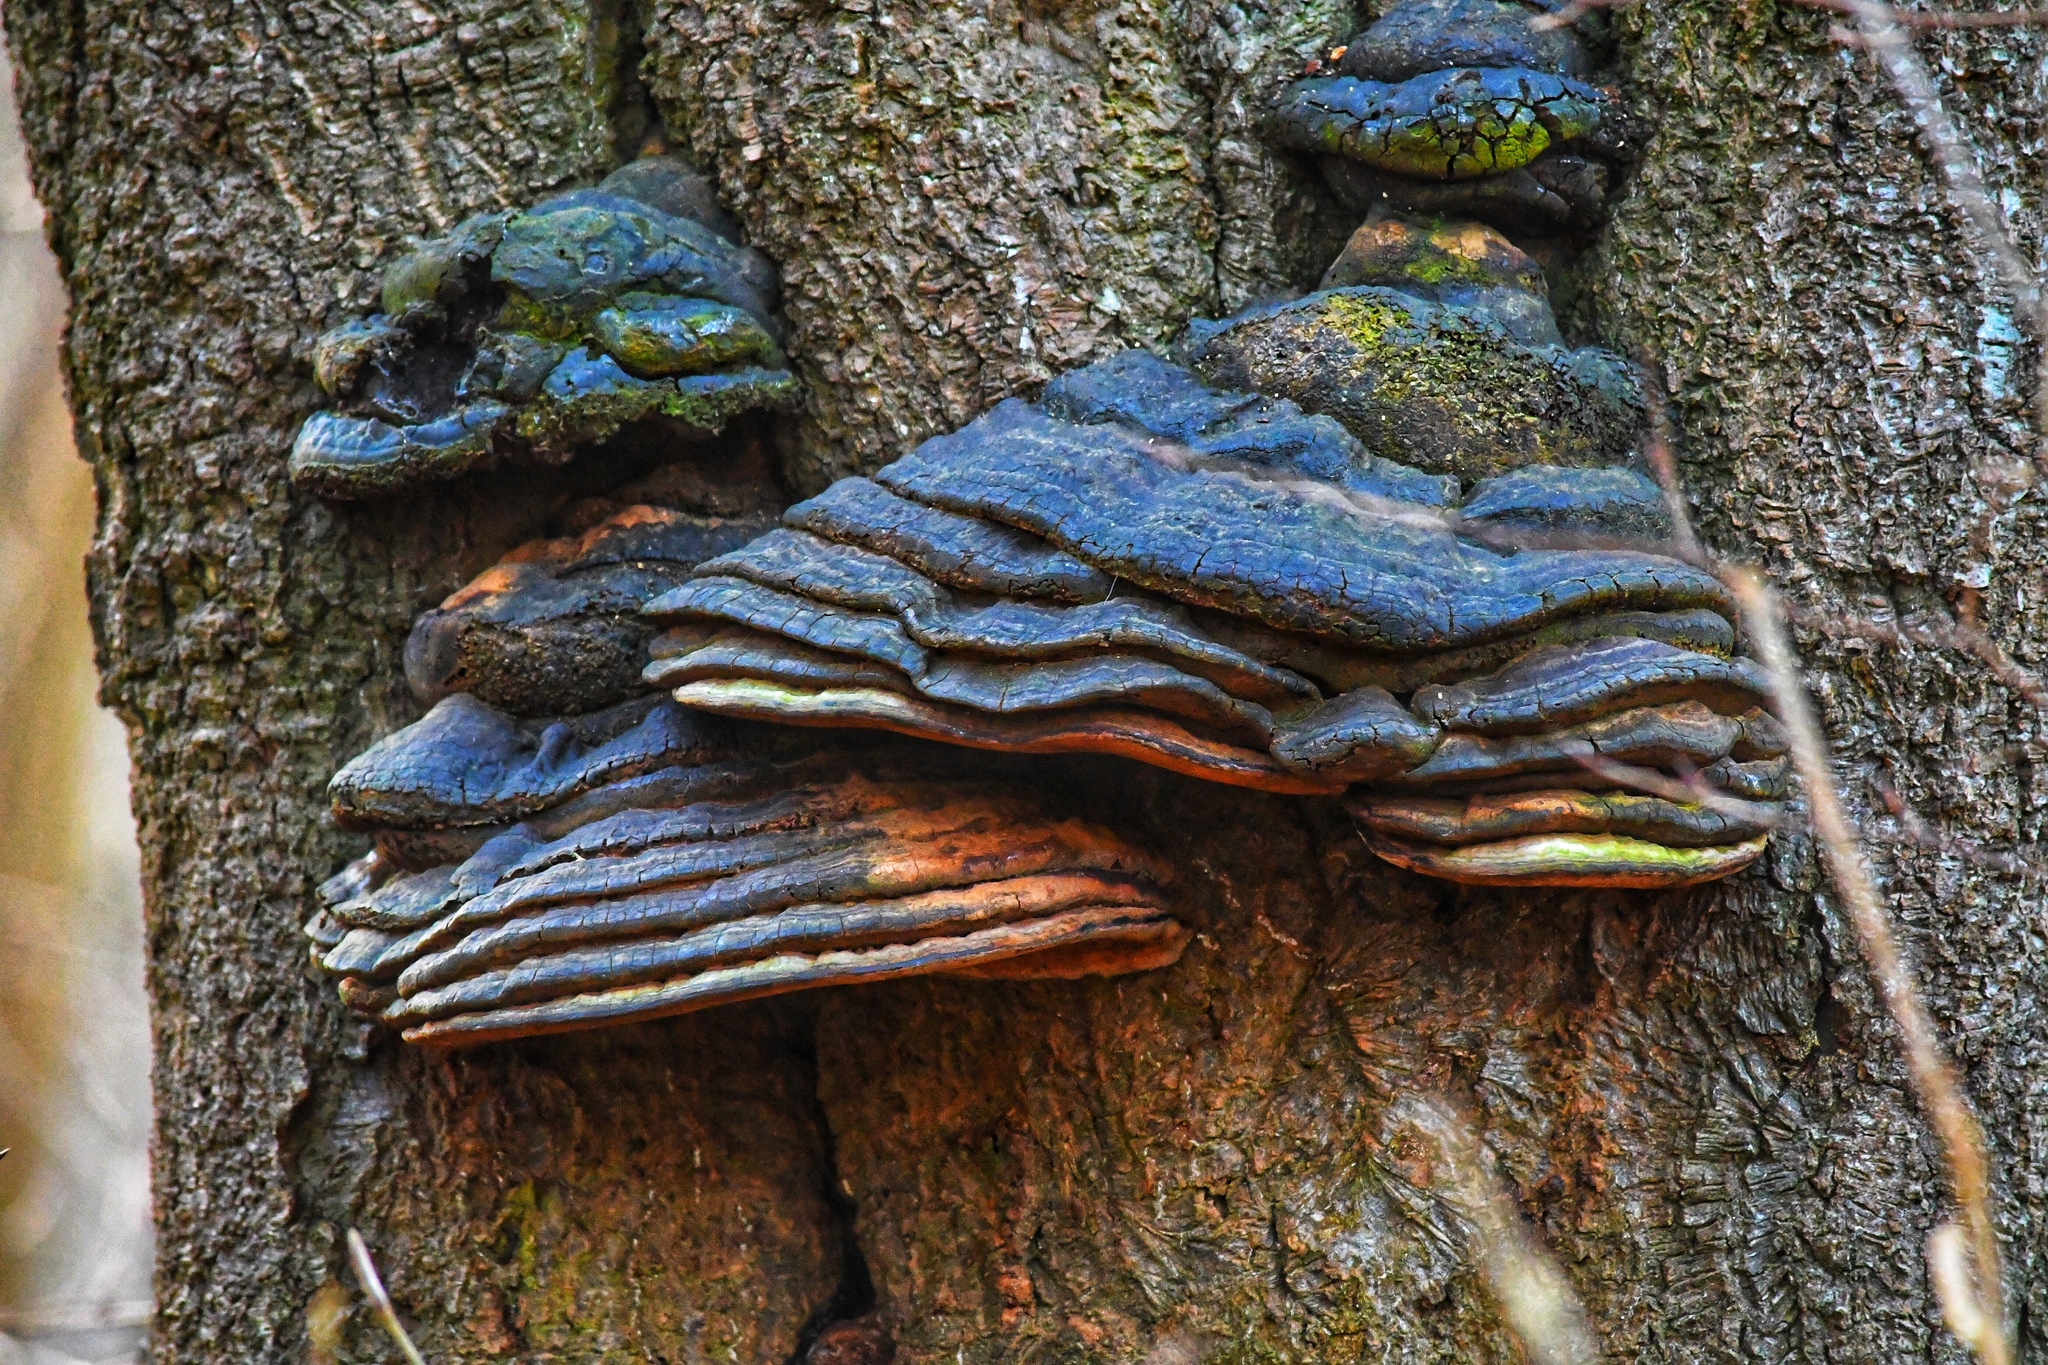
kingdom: Fungi
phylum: Basidiomycota
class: Agaricomycetes
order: Polyporales
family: Polyporaceae
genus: Fomes
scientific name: Fomes fomentarius
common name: Hoof fungus
